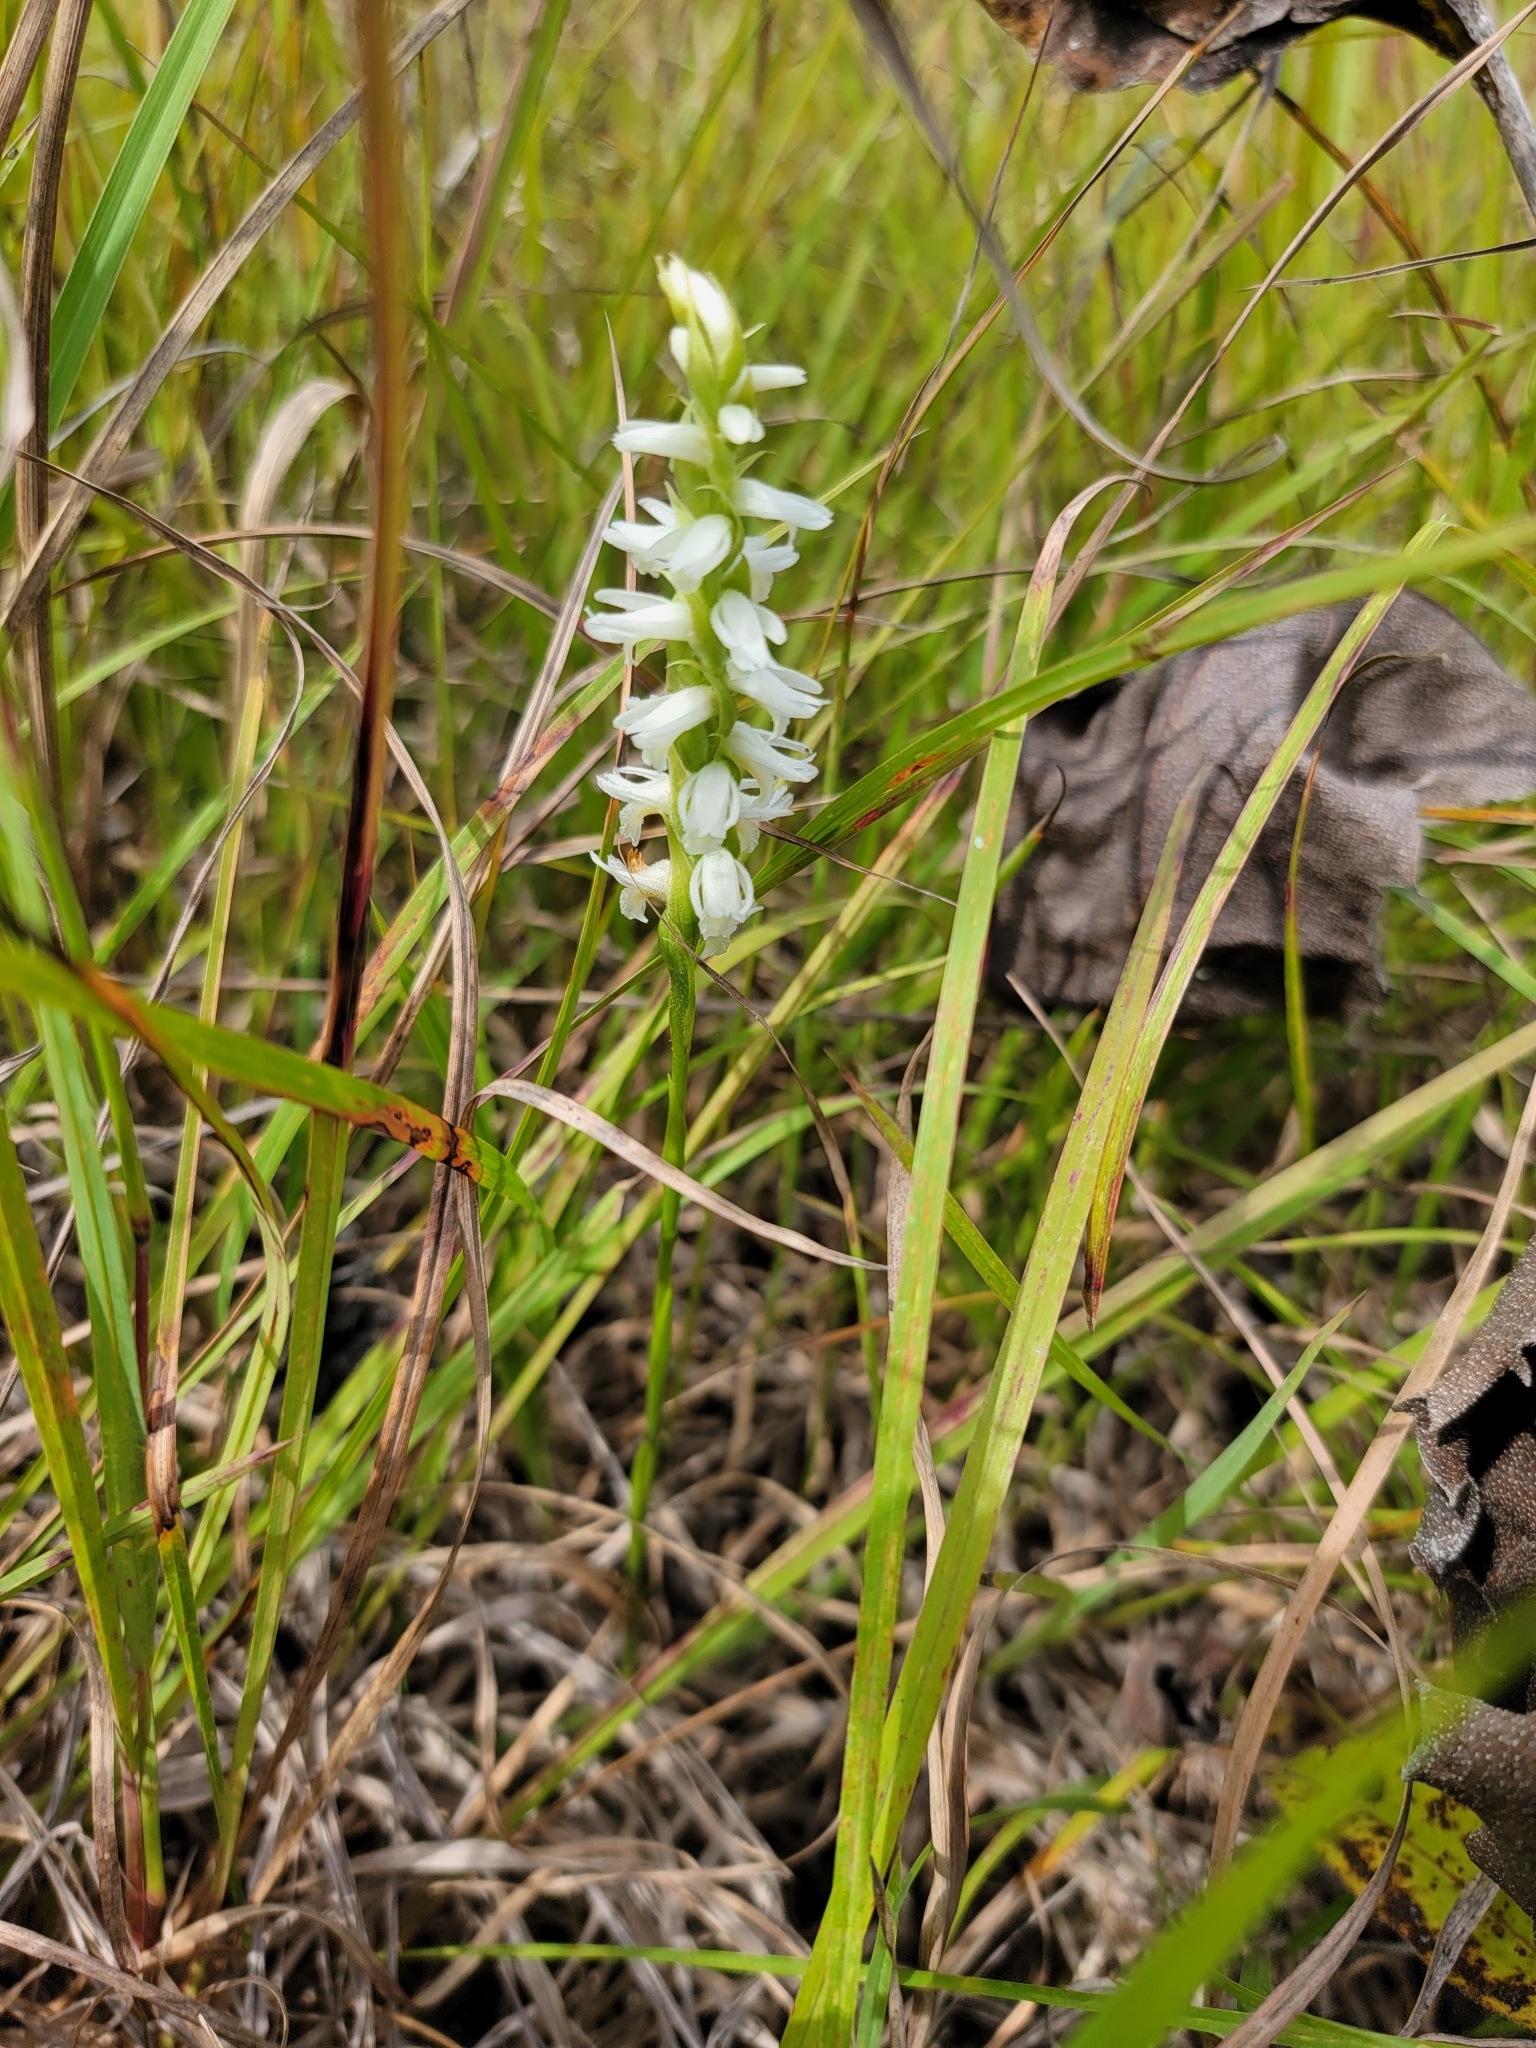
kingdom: Plantae
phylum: Tracheophyta
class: Liliopsida
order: Asparagales
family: Orchidaceae
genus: Spiranthes
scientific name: Spiranthes magnicamporum
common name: Great plains ladies'-tresses
